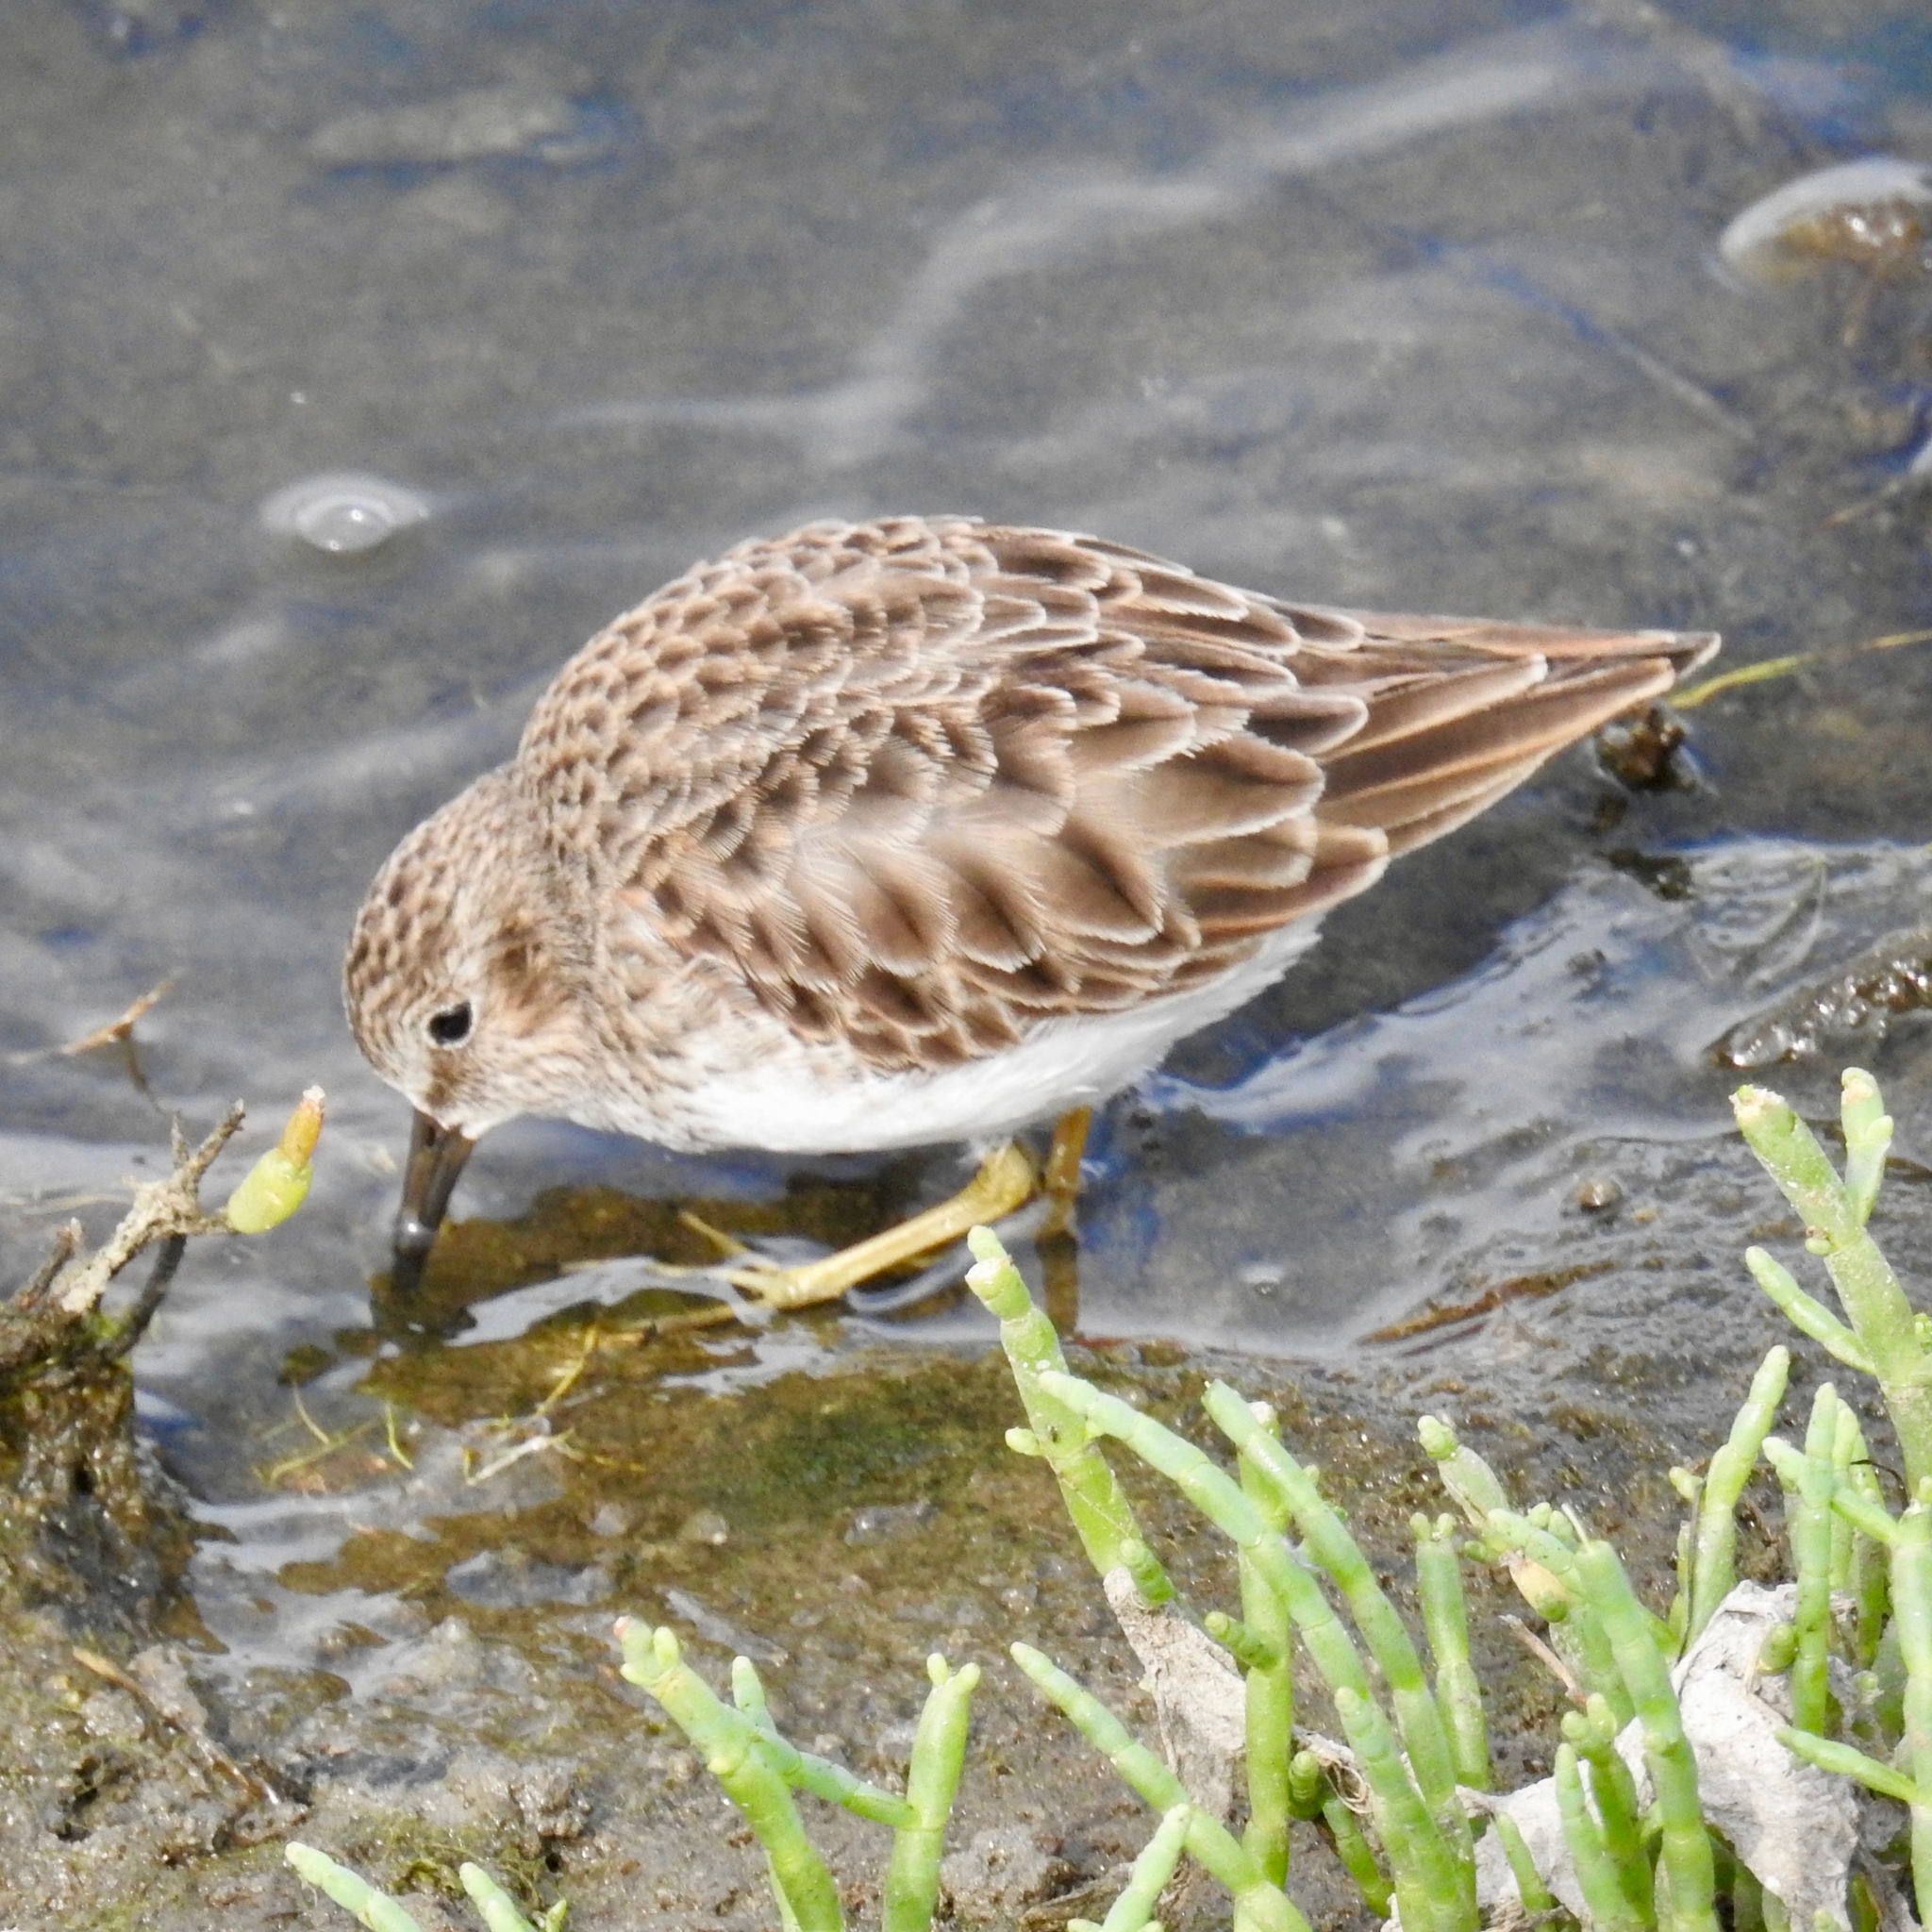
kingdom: Animalia
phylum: Chordata
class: Aves
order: Charadriiformes
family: Scolopacidae
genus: Calidris
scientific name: Calidris minutilla
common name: Least sandpiper
